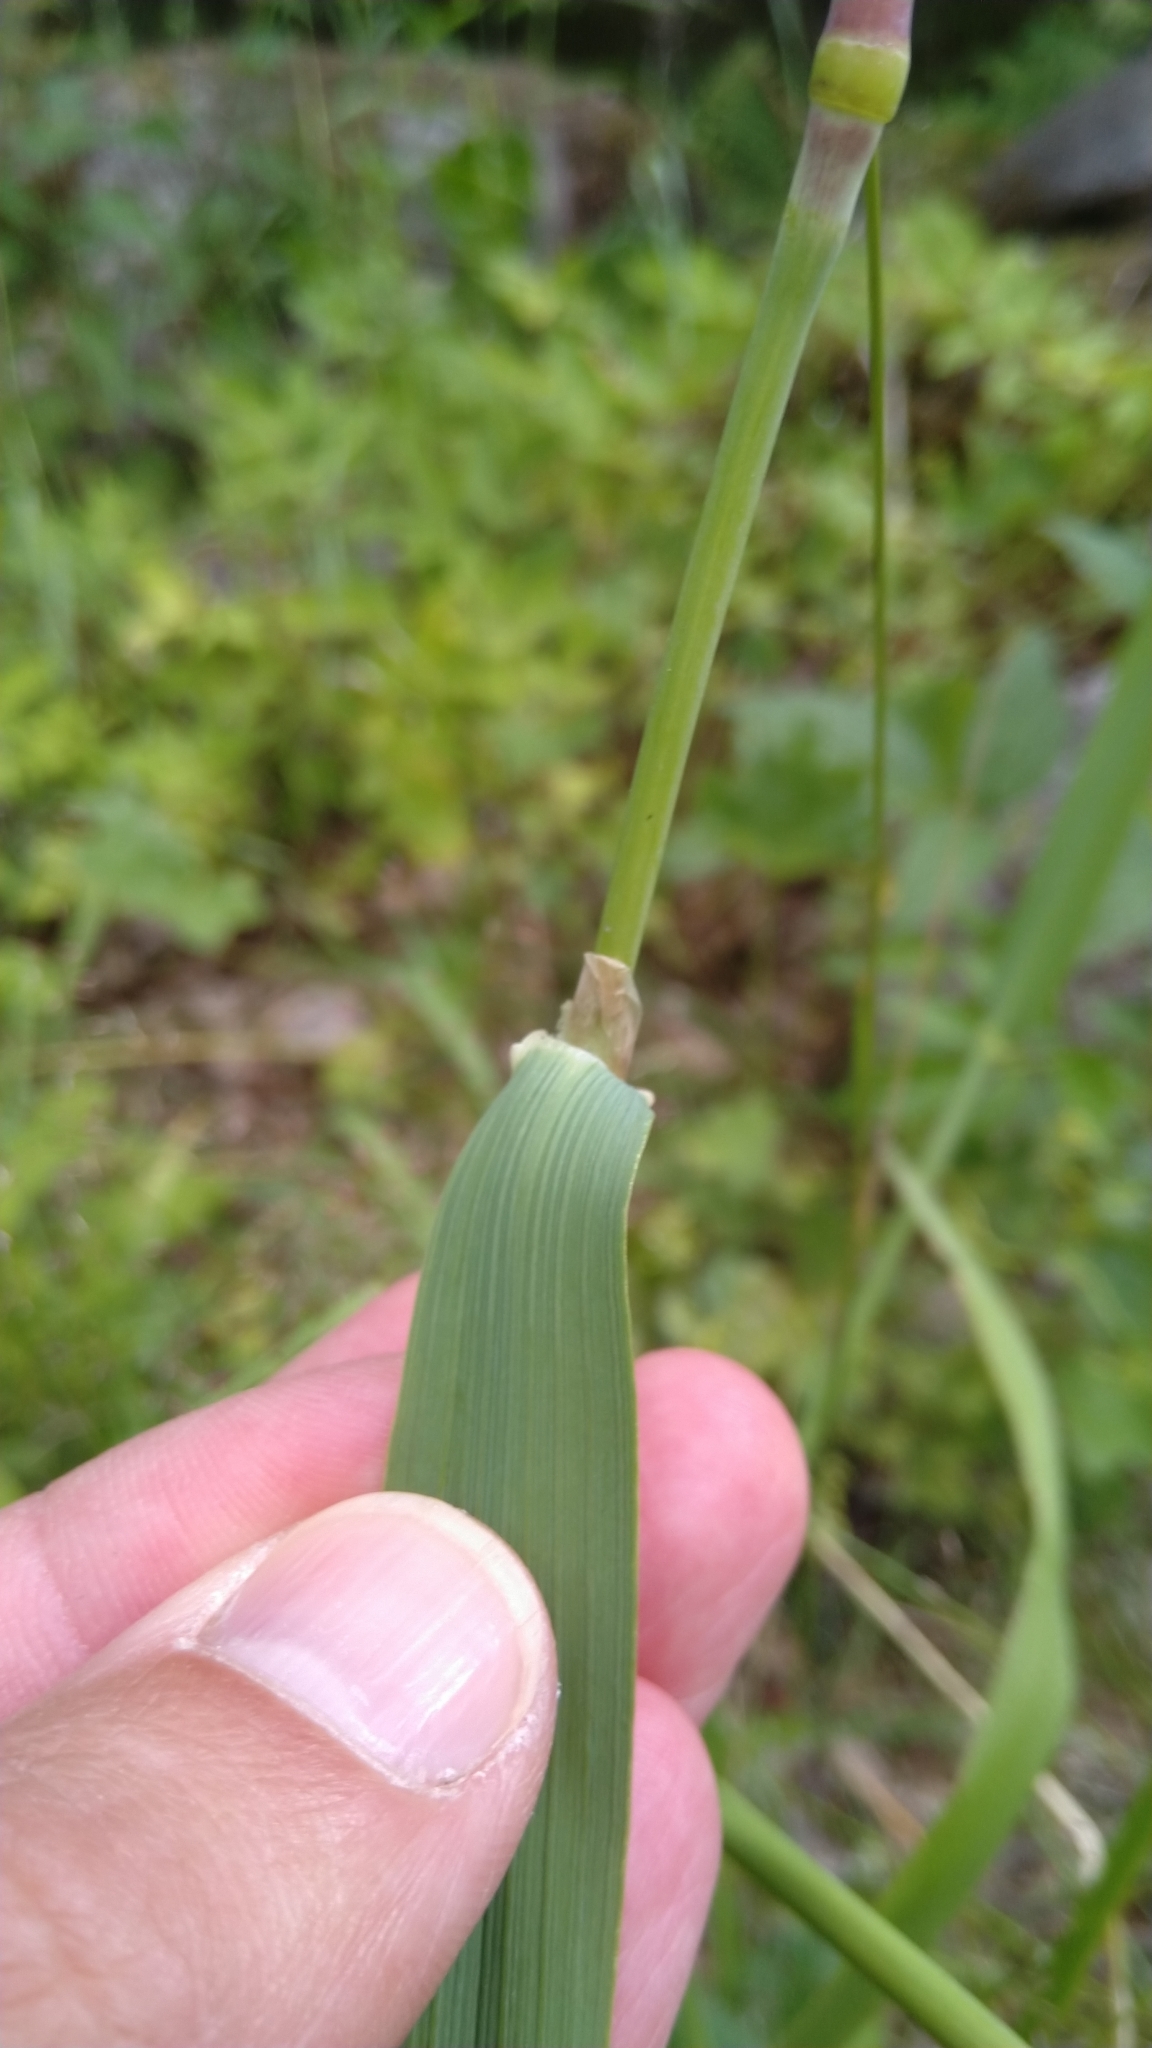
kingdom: Plantae
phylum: Tracheophyta
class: Liliopsida
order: Poales
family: Poaceae
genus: Calamagrostis
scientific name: Calamagrostis epigejos
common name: Wood small-reed
